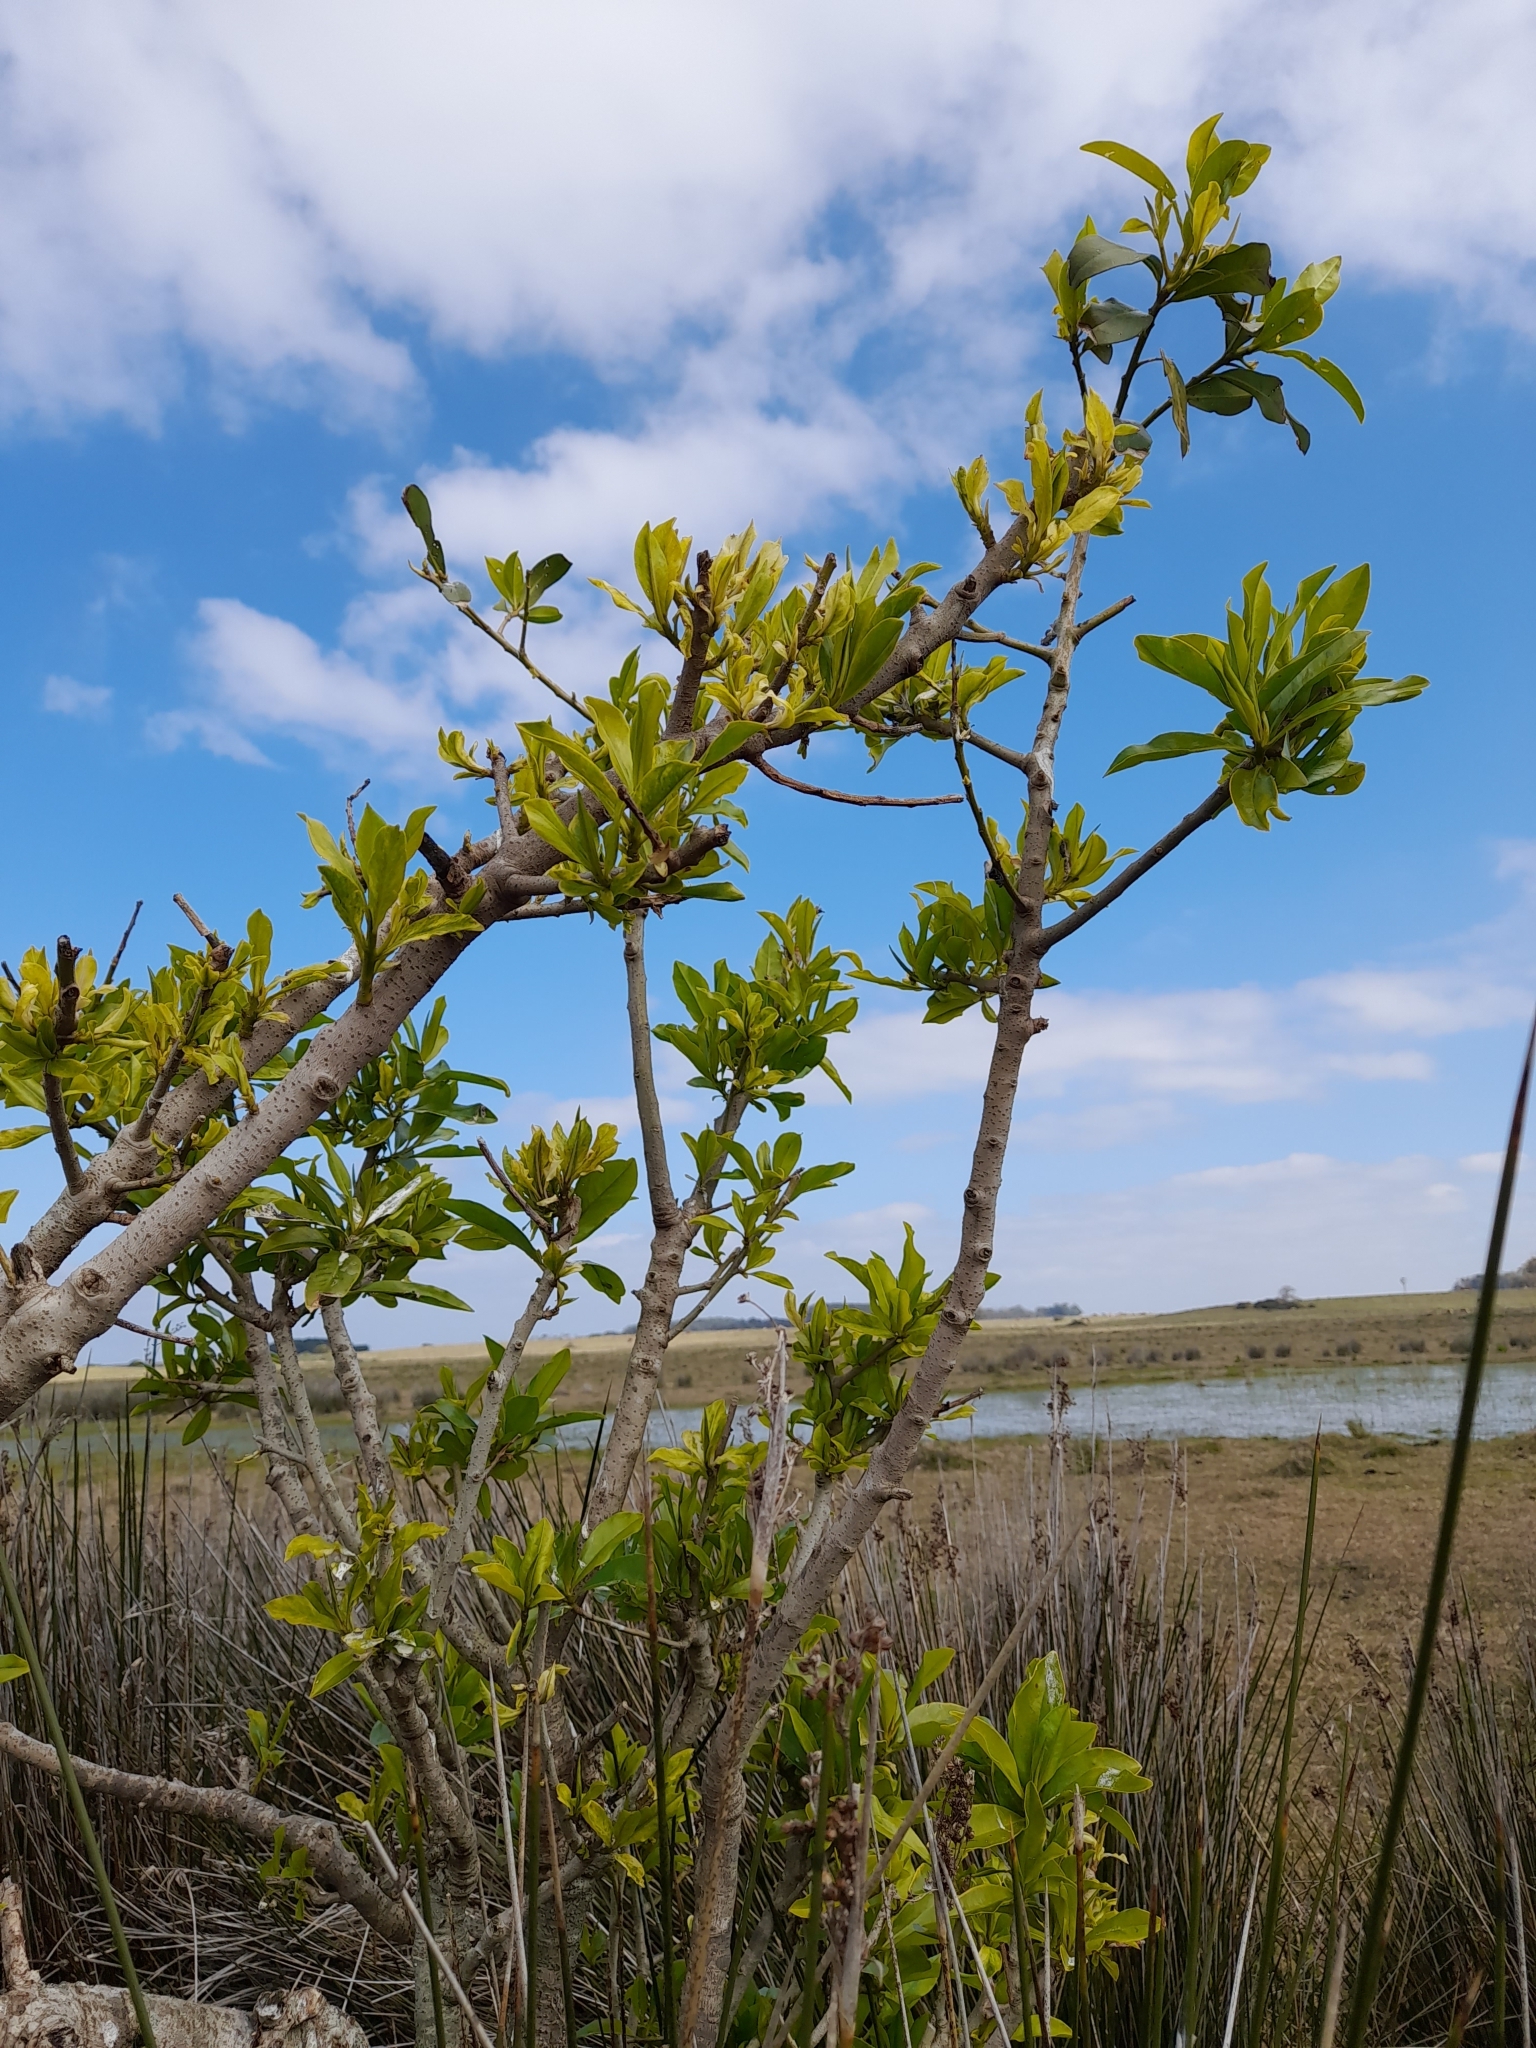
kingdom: Plantae
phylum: Tracheophyta
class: Magnoliopsida
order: Ericales
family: Primulaceae
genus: Myrsine
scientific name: Myrsine laetevirens
